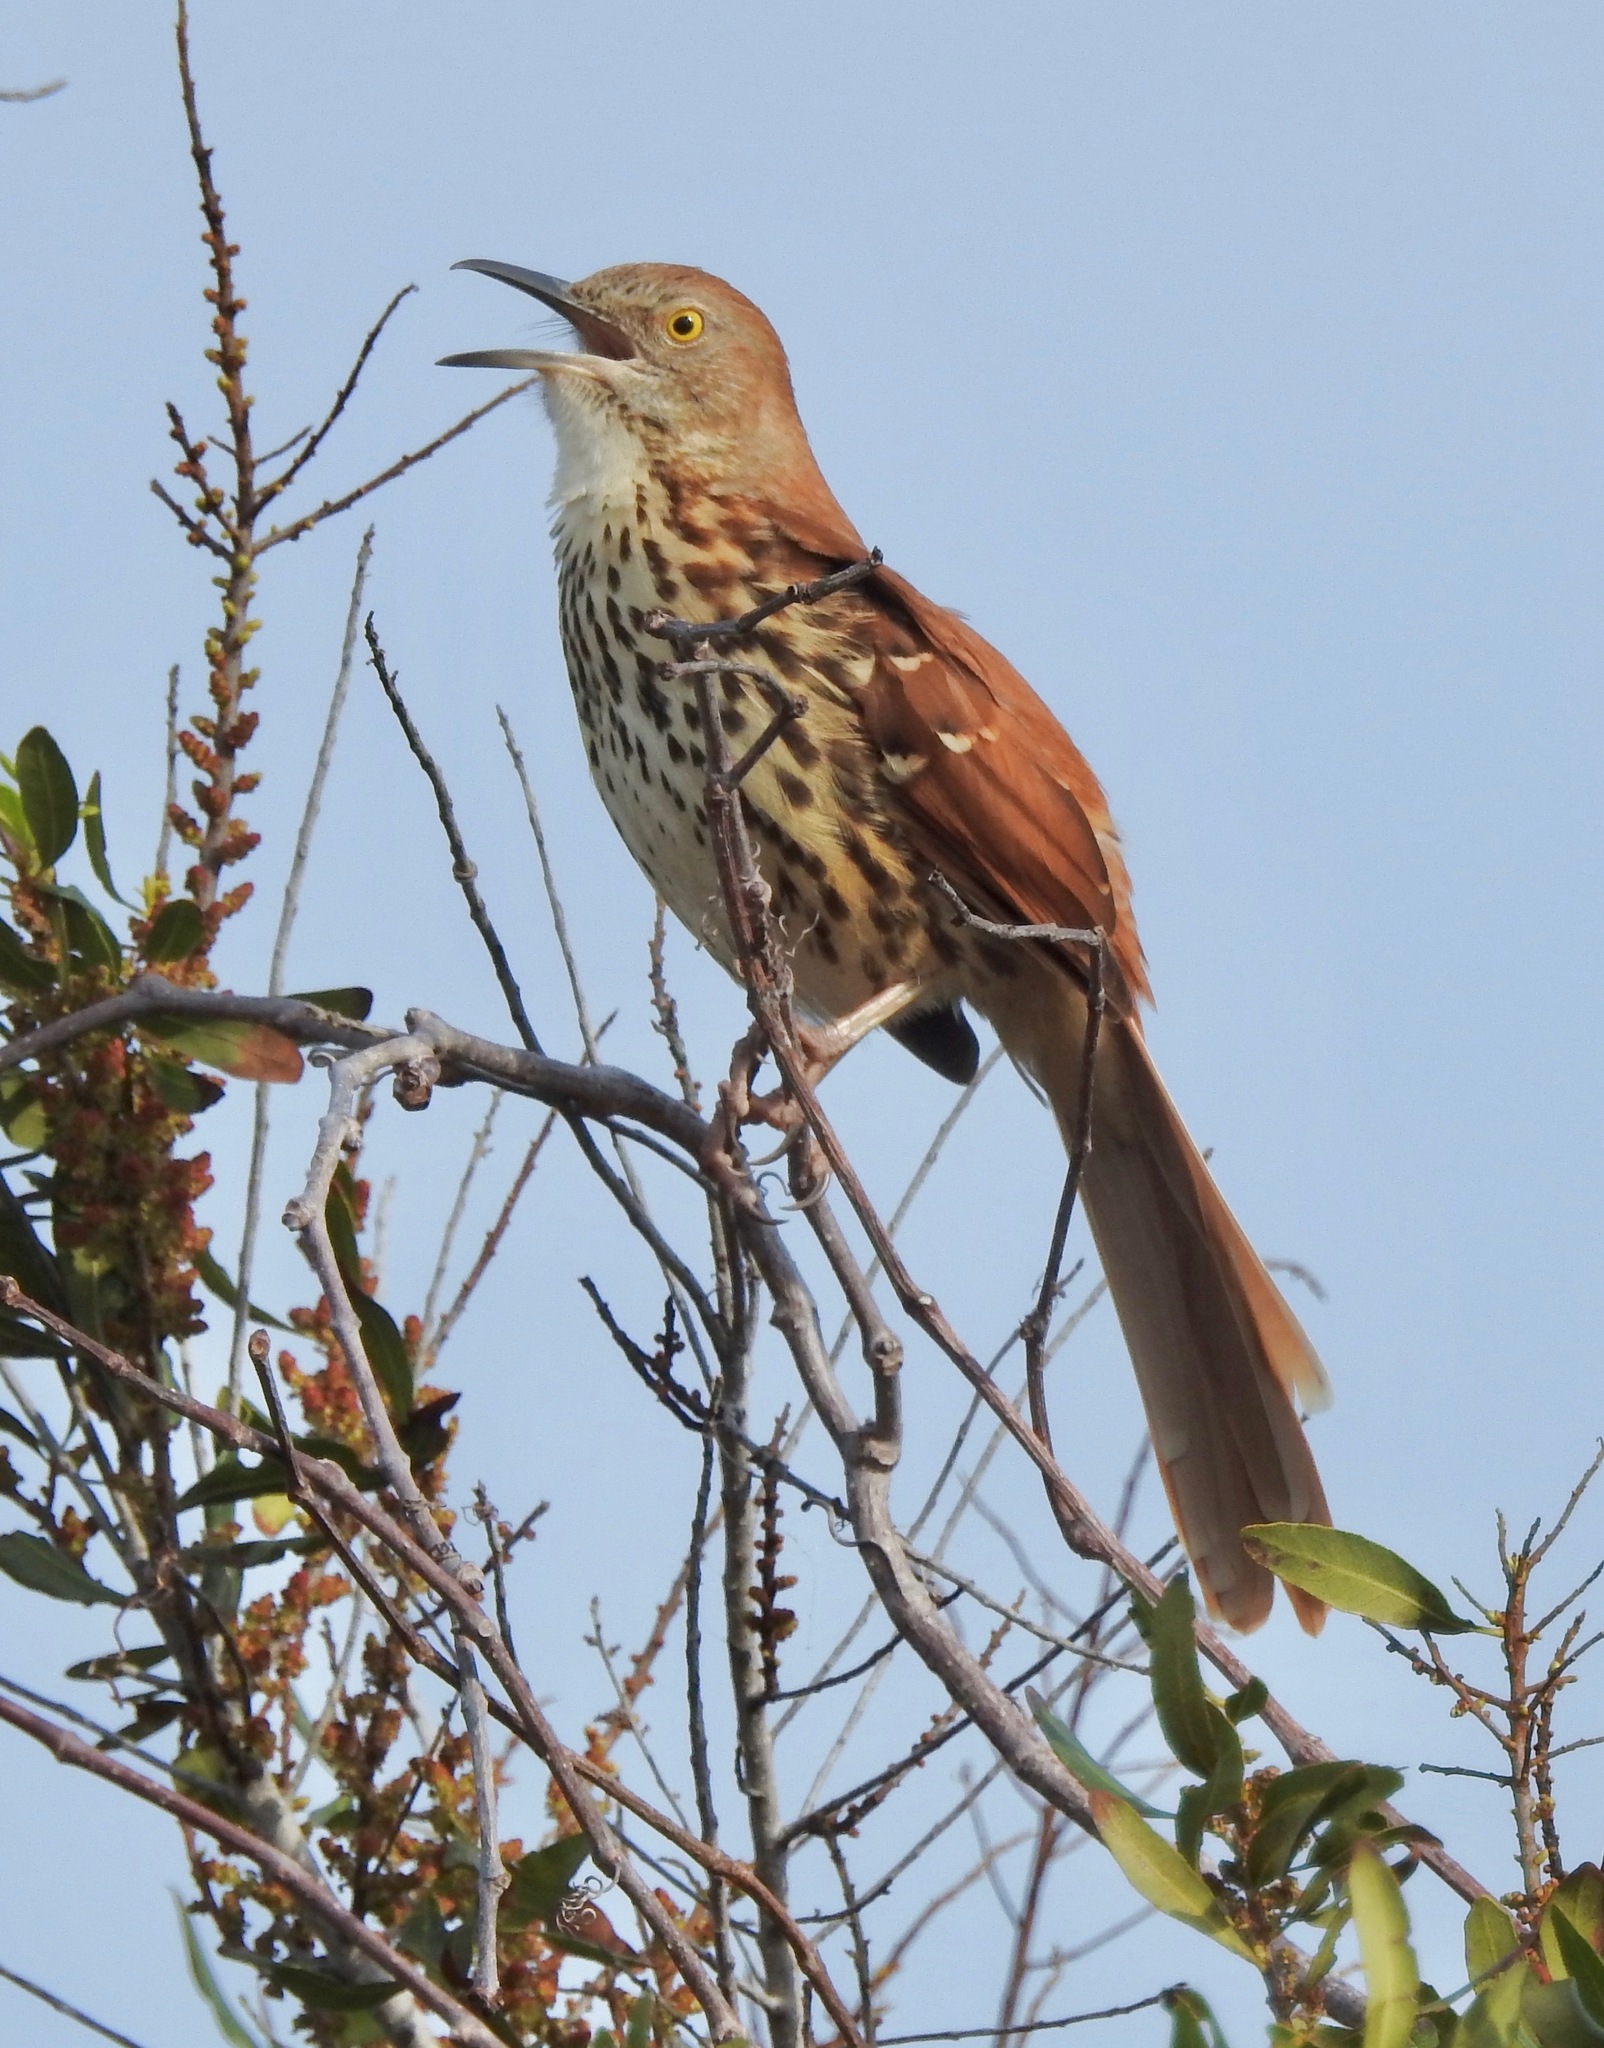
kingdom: Animalia
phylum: Chordata
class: Aves
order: Passeriformes
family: Mimidae
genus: Toxostoma
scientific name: Toxostoma rufum
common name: Brown thrasher
